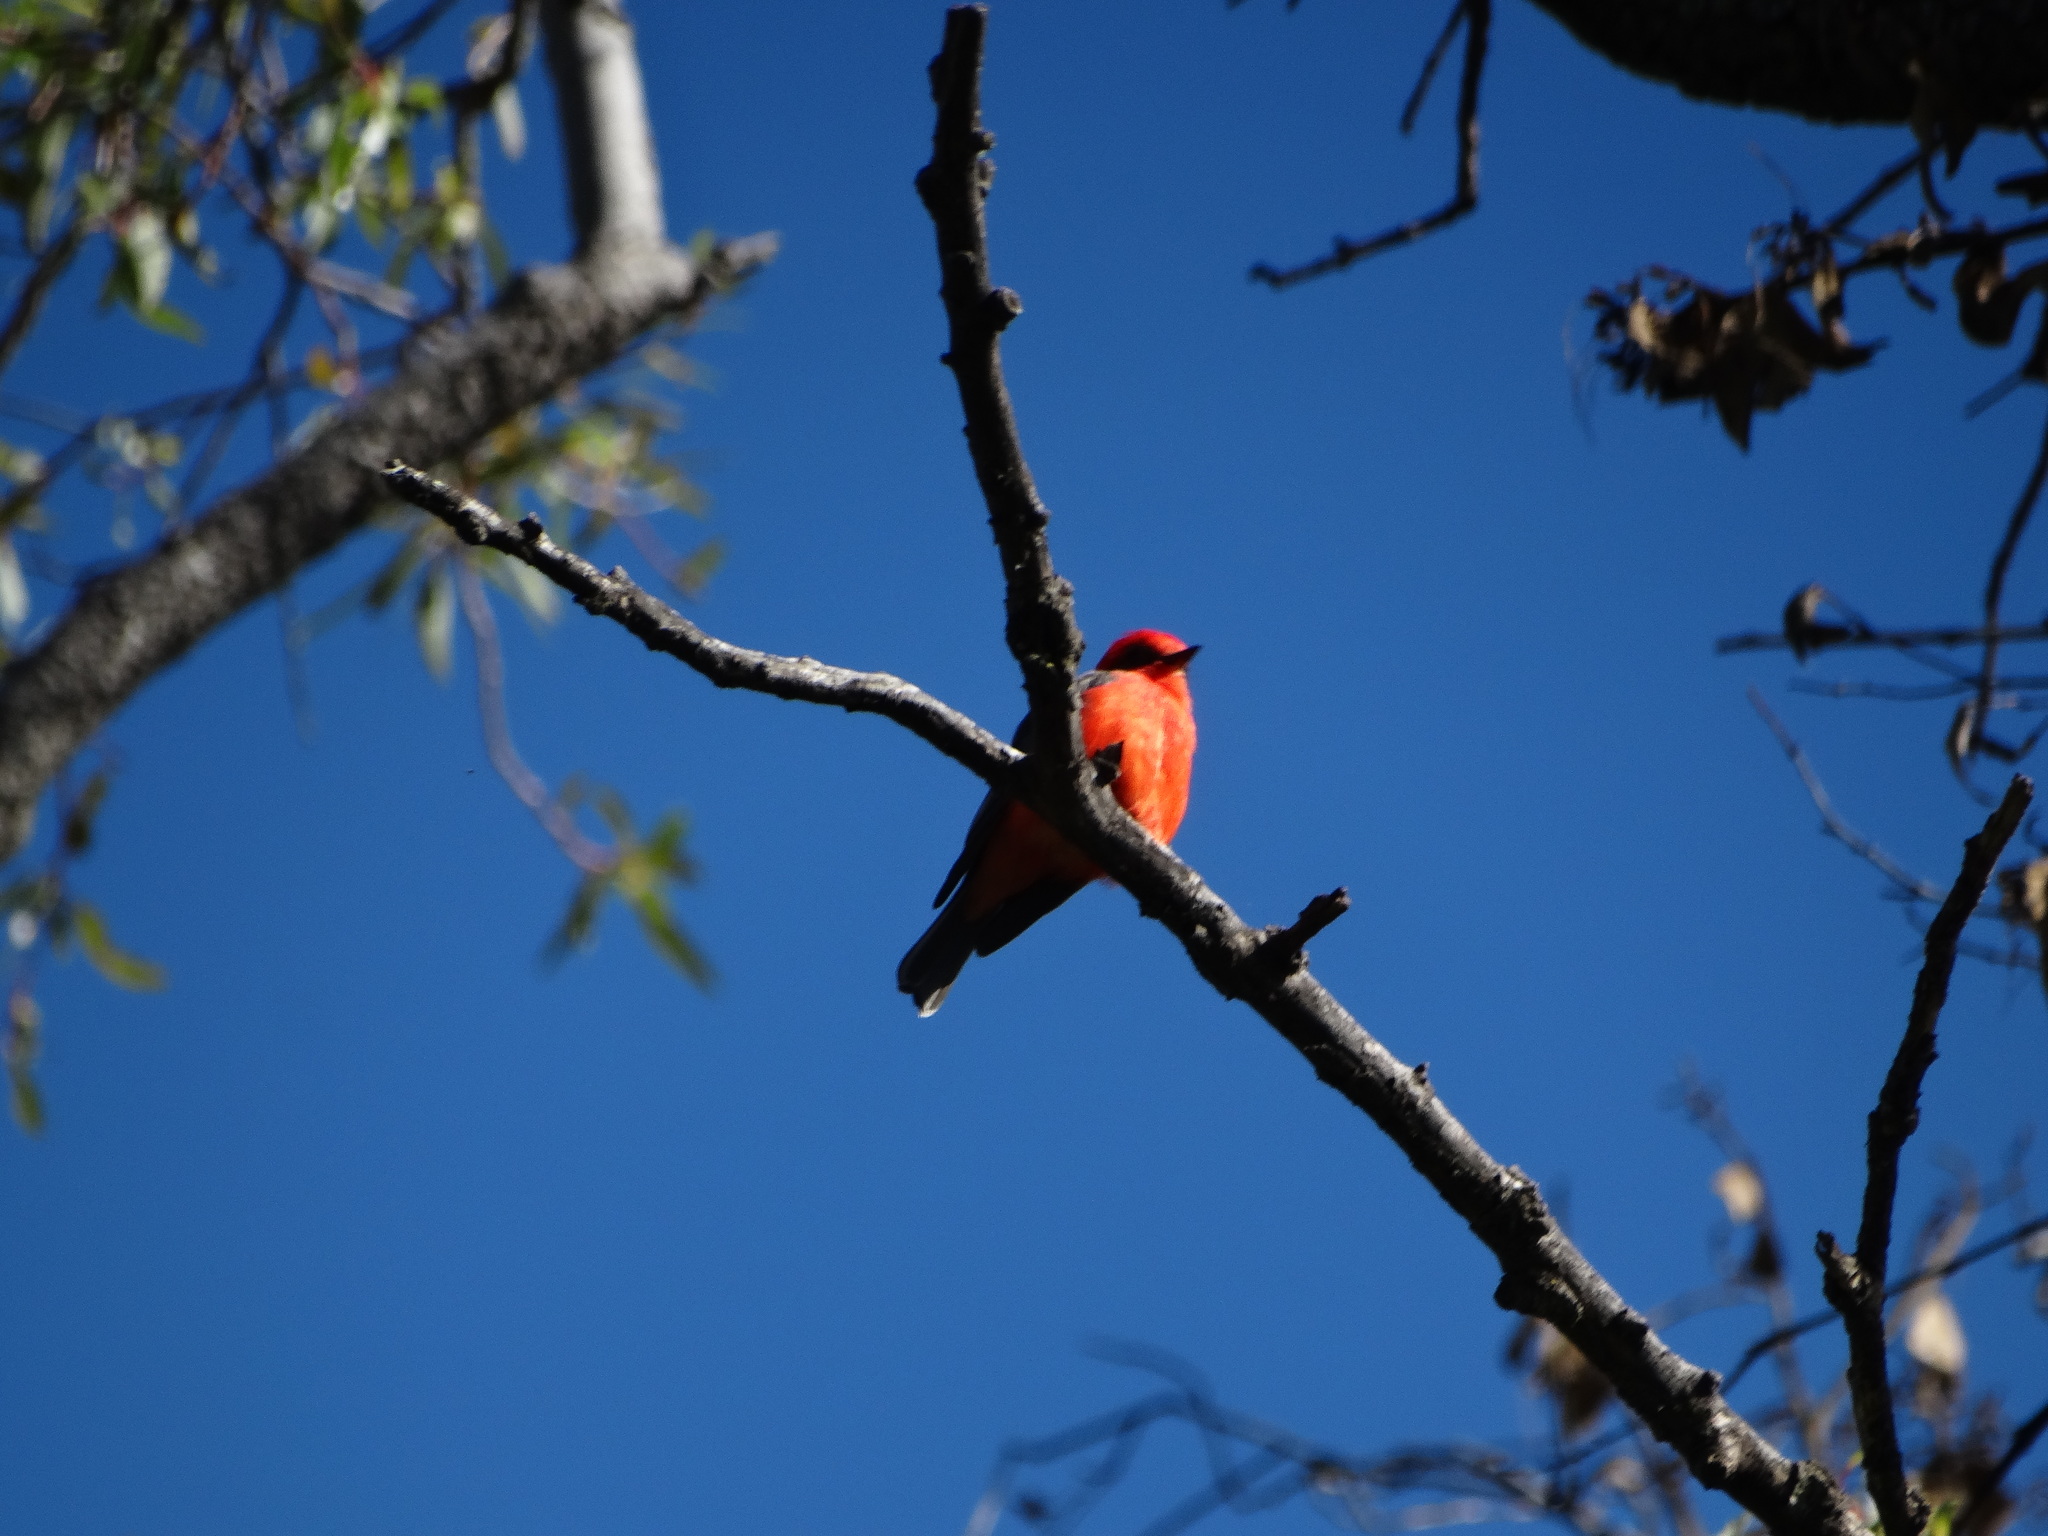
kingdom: Animalia
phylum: Chordata
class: Aves
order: Passeriformes
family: Tyrannidae
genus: Pyrocephalus
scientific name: Pyrocephalus rubinus
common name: Vermilion flycatcher
